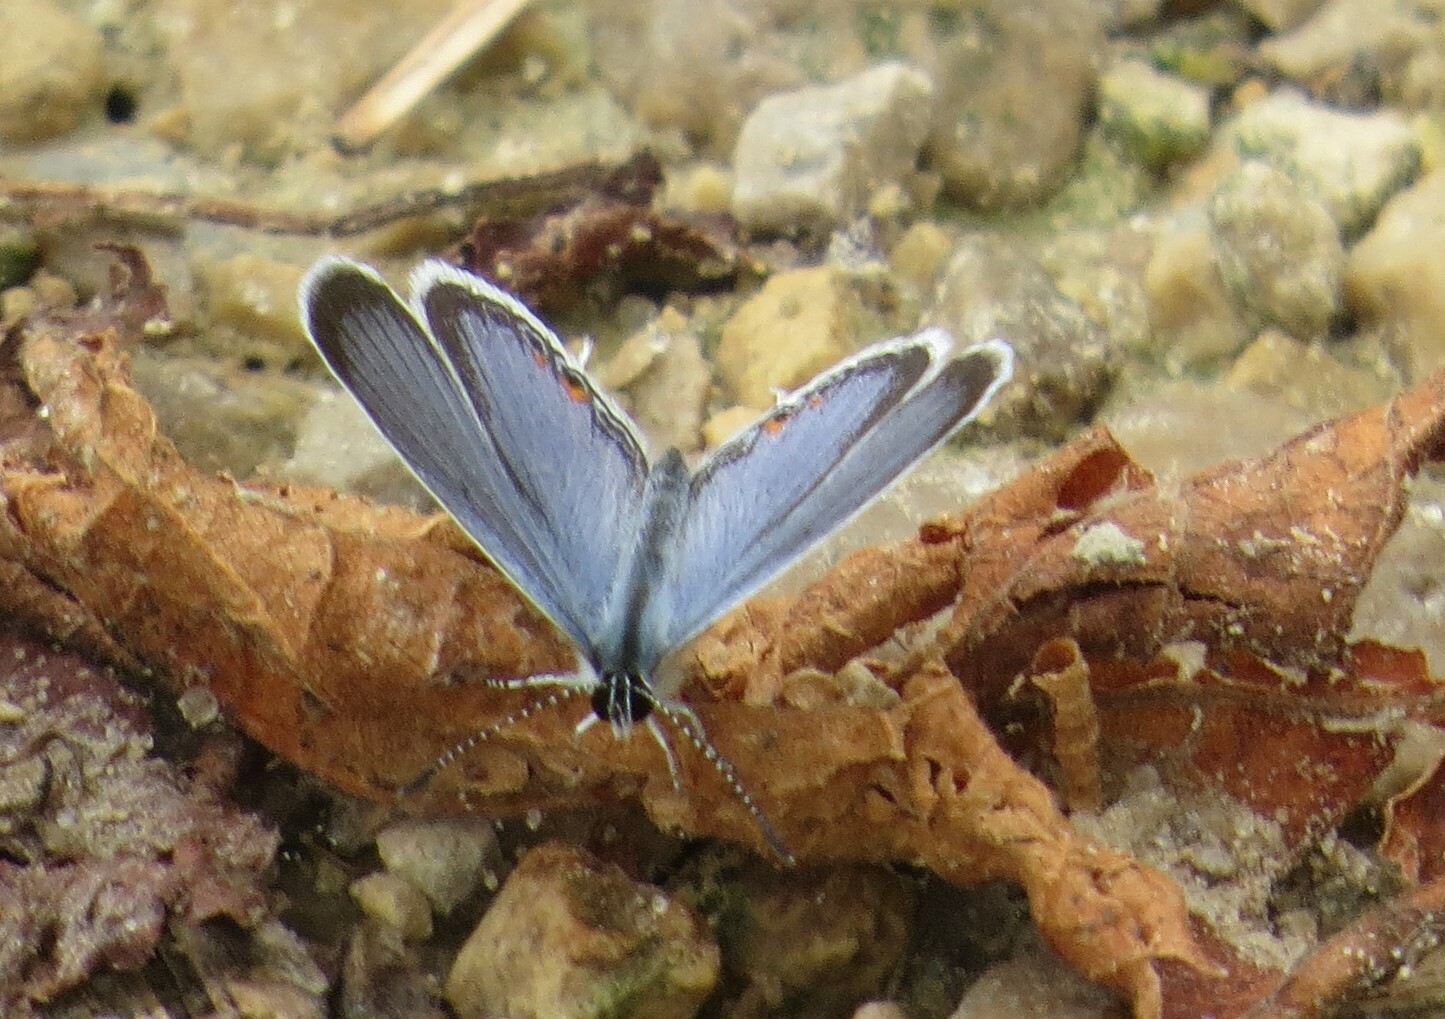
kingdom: Animalia
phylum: Arthropoda
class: Insecta
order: Lepidoptera
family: Lycaenidae
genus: Elkalyce
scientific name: Elkalyce comyntas
